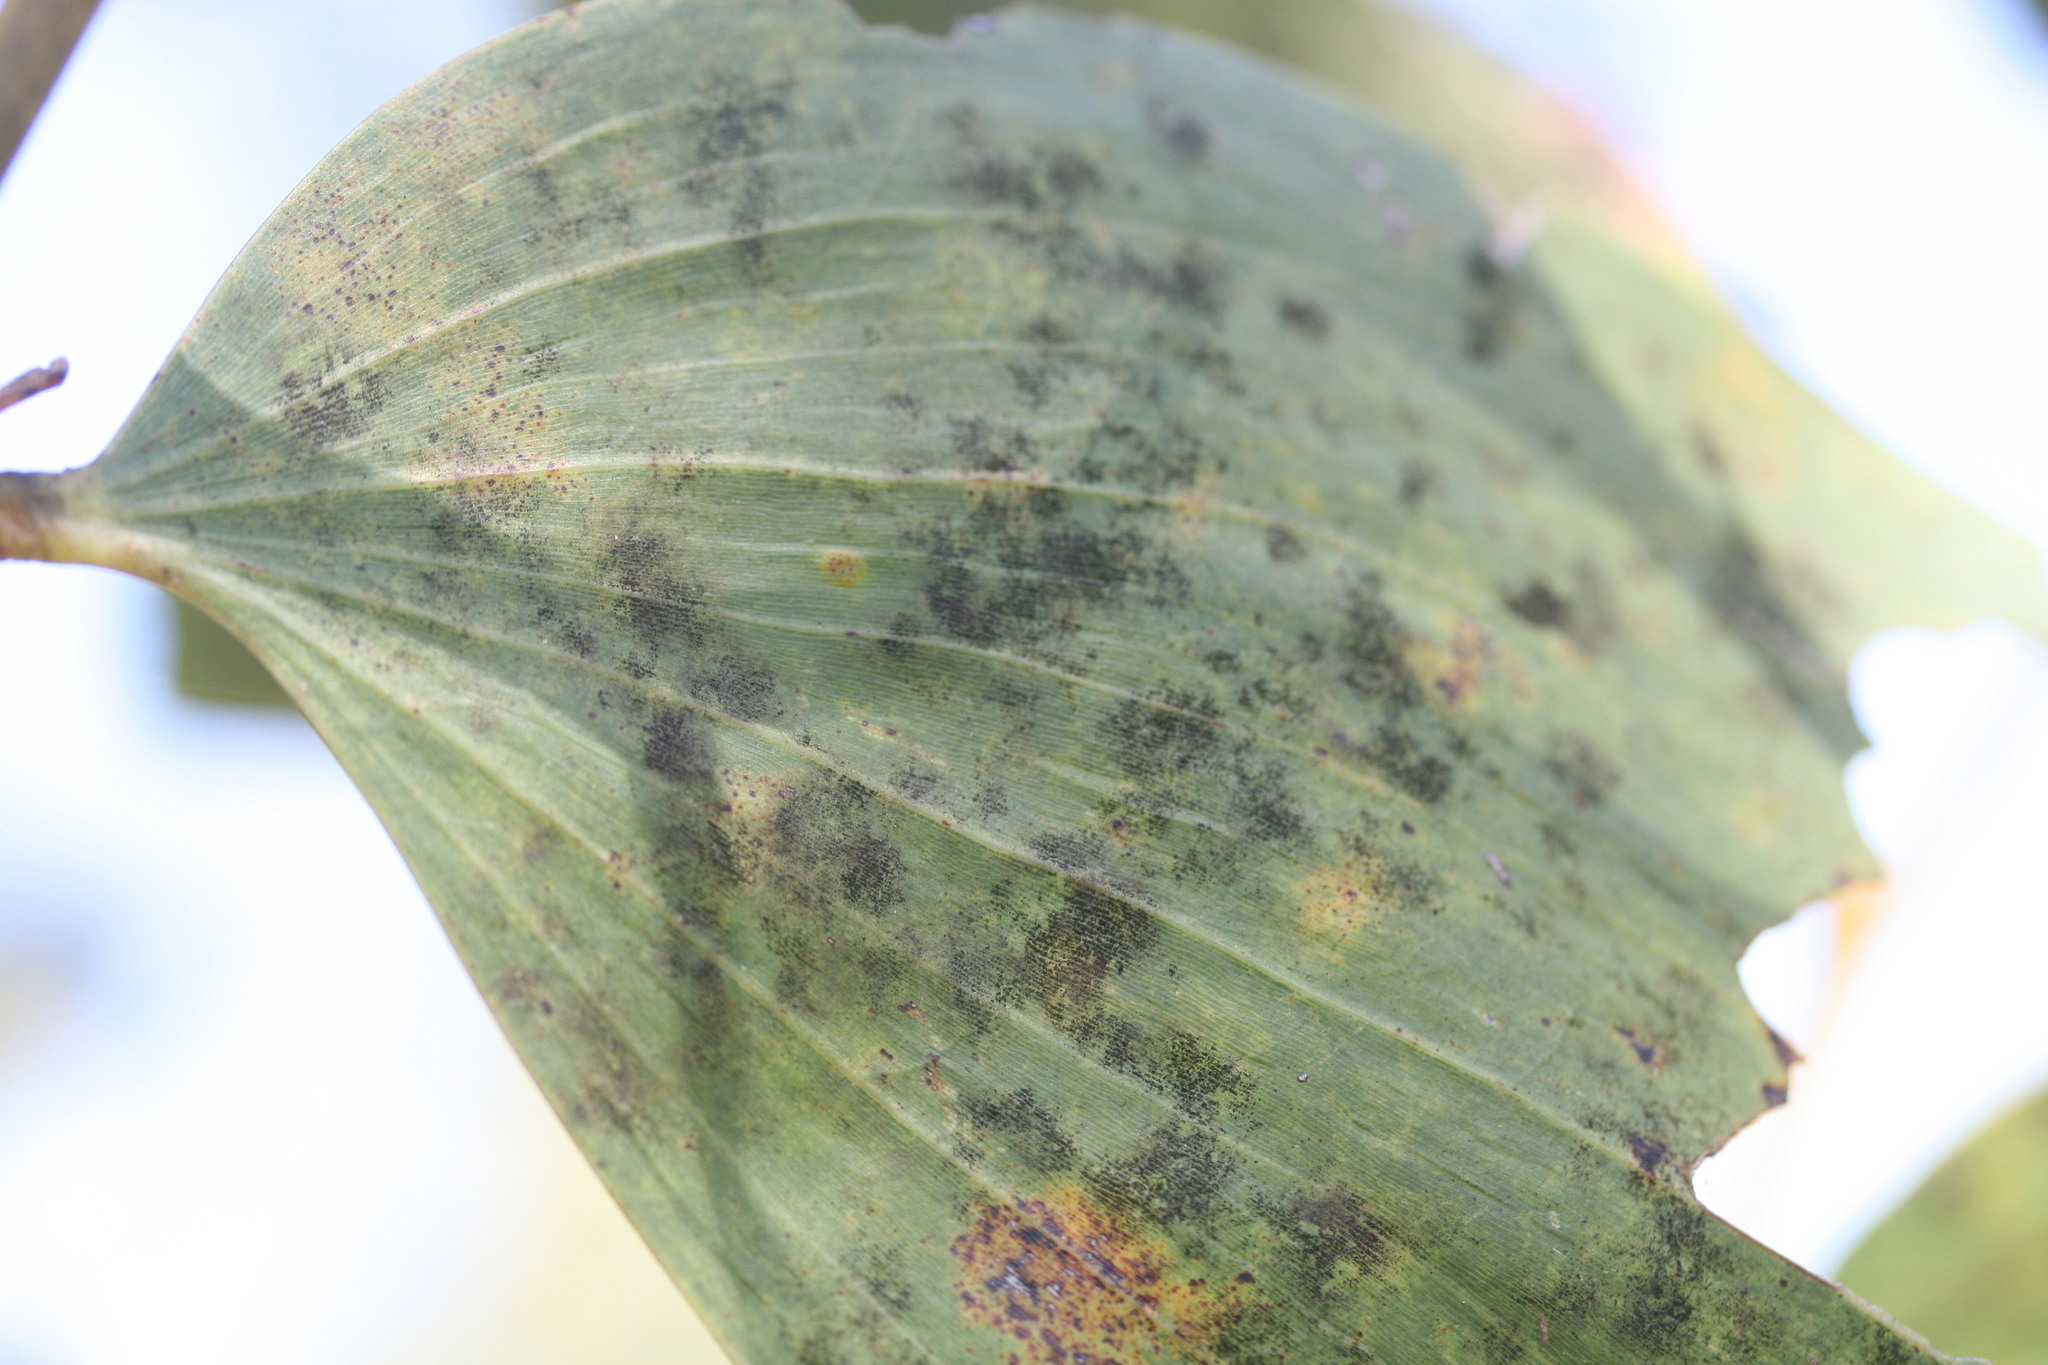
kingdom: Plantae
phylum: Tracheophyta
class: Magnoliopsida
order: Fabales
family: Fabaceae
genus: Acacia
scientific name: Acacia tumida
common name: Pindan wattle
